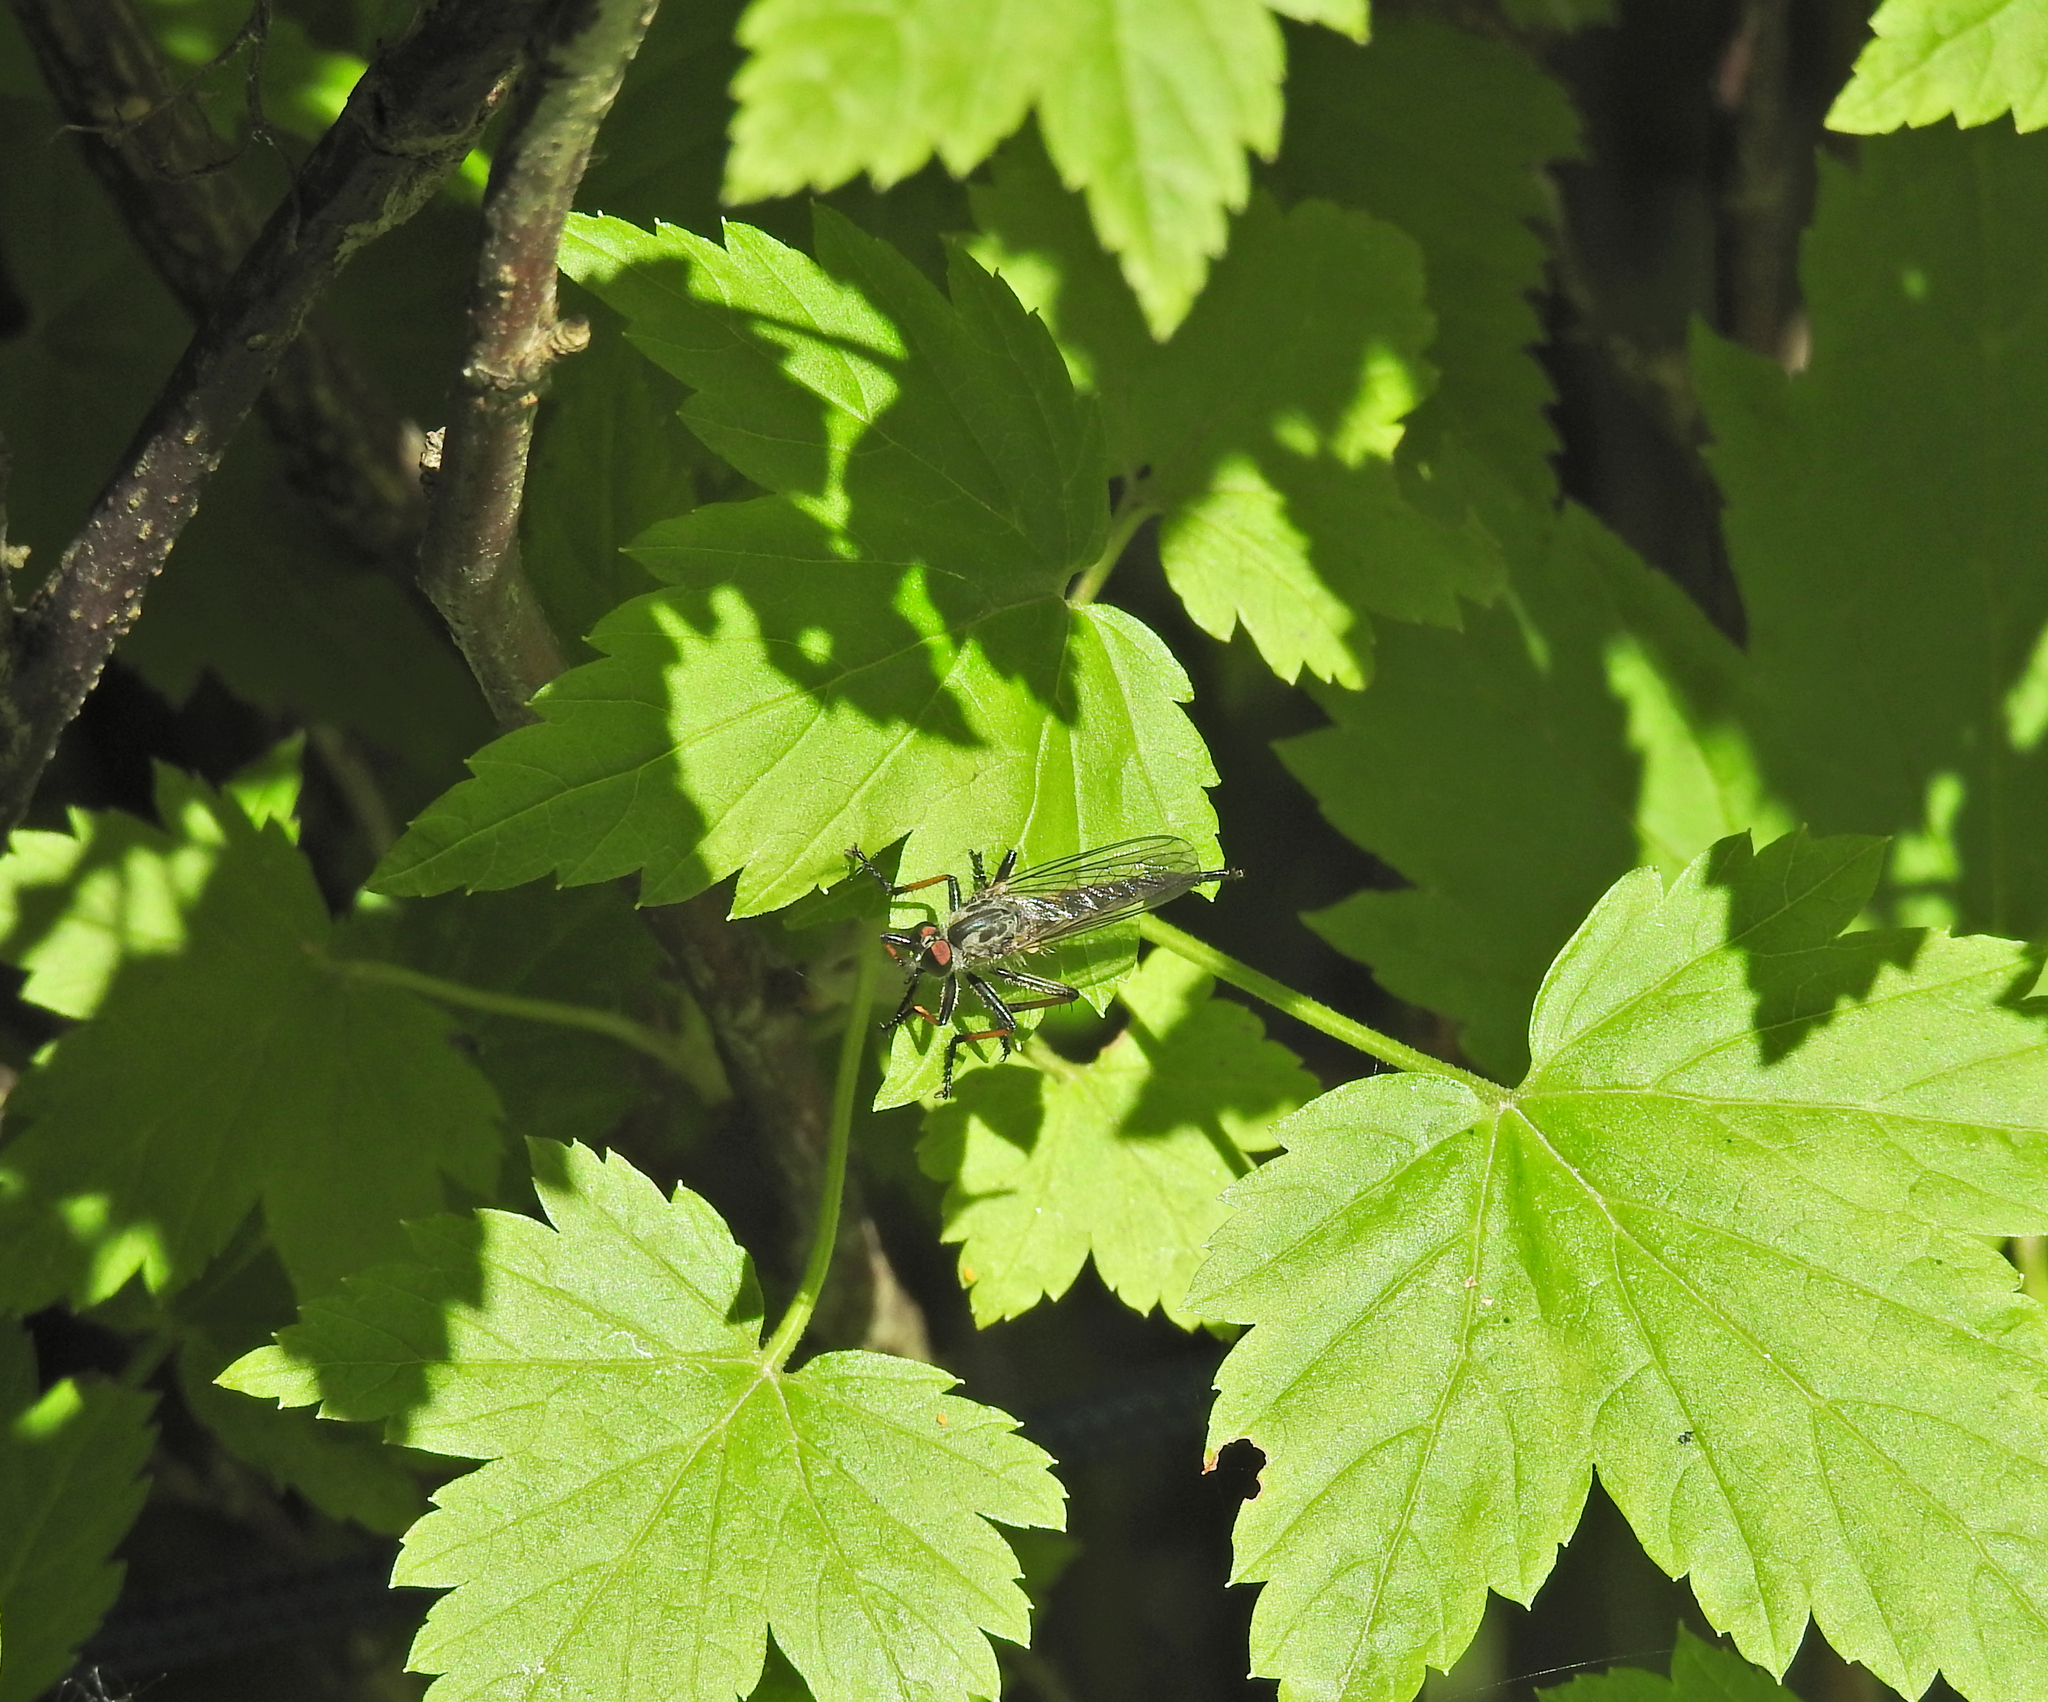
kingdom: Animalia
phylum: Arthropoda
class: Insecta
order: Diptera
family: Asilidae
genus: Neoitamus
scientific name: Neoitamus
